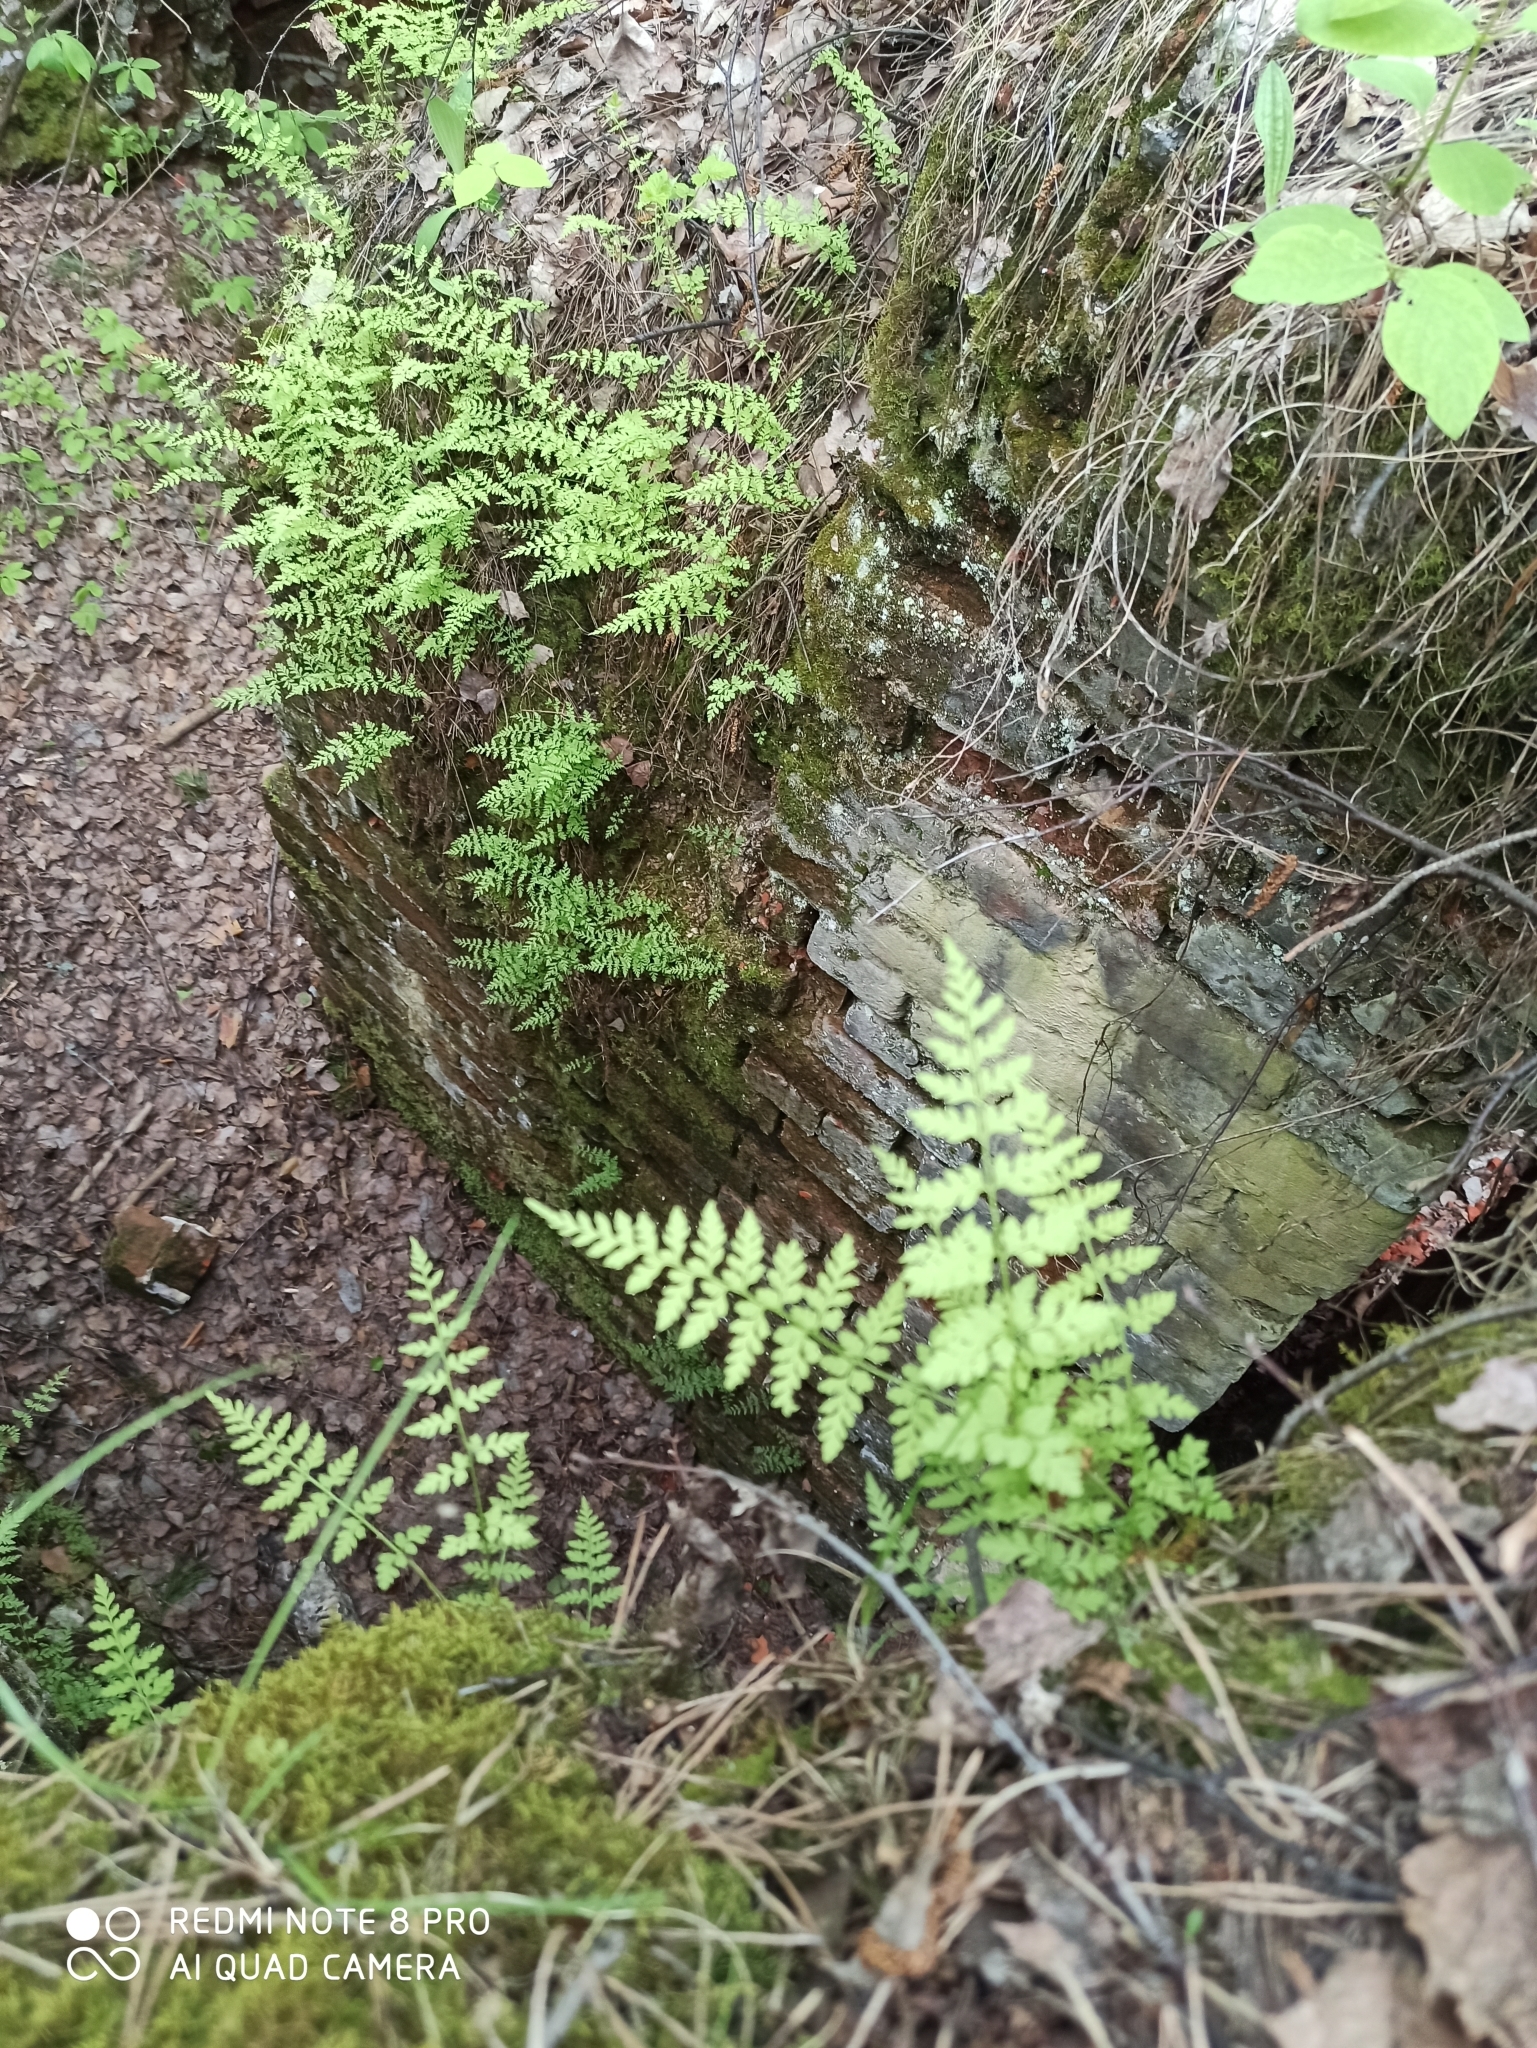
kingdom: Plantae
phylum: Tracheophyta
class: Polypodiopsida
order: Polypodiales
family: Cystopteridaceae
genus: Cystopteris
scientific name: Cystopteris fragilis
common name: Brittle bladder fern
